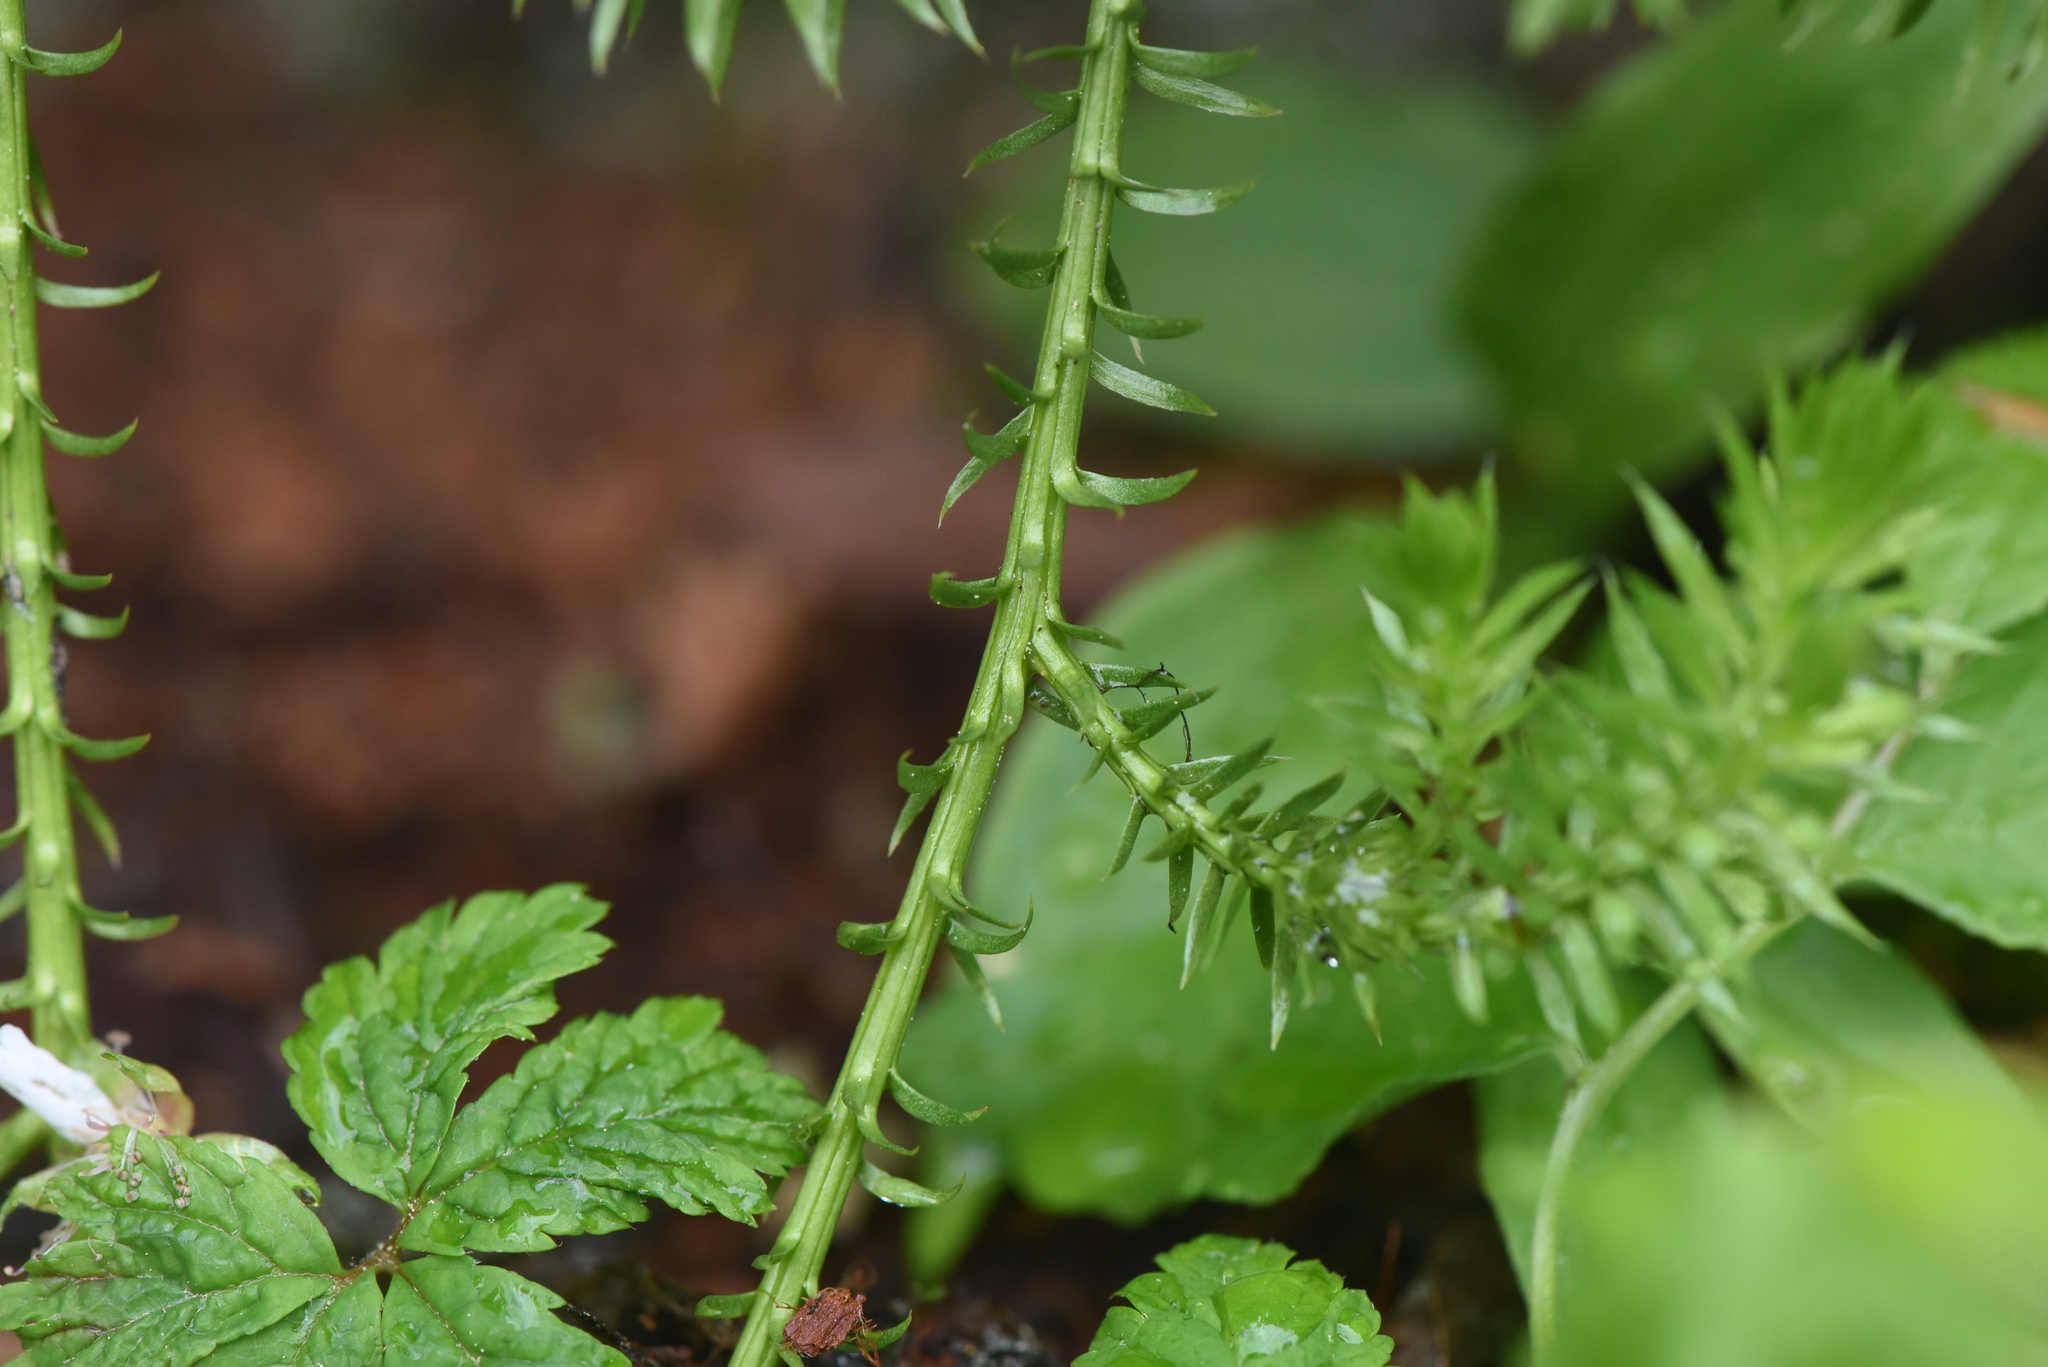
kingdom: Plantae
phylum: Tracheophyta
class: Lycopodiopsida
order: Lycopodiales
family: Lycopodiaceae
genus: Spinulum
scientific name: Spinulum annotinum
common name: Interrupted club-moss
